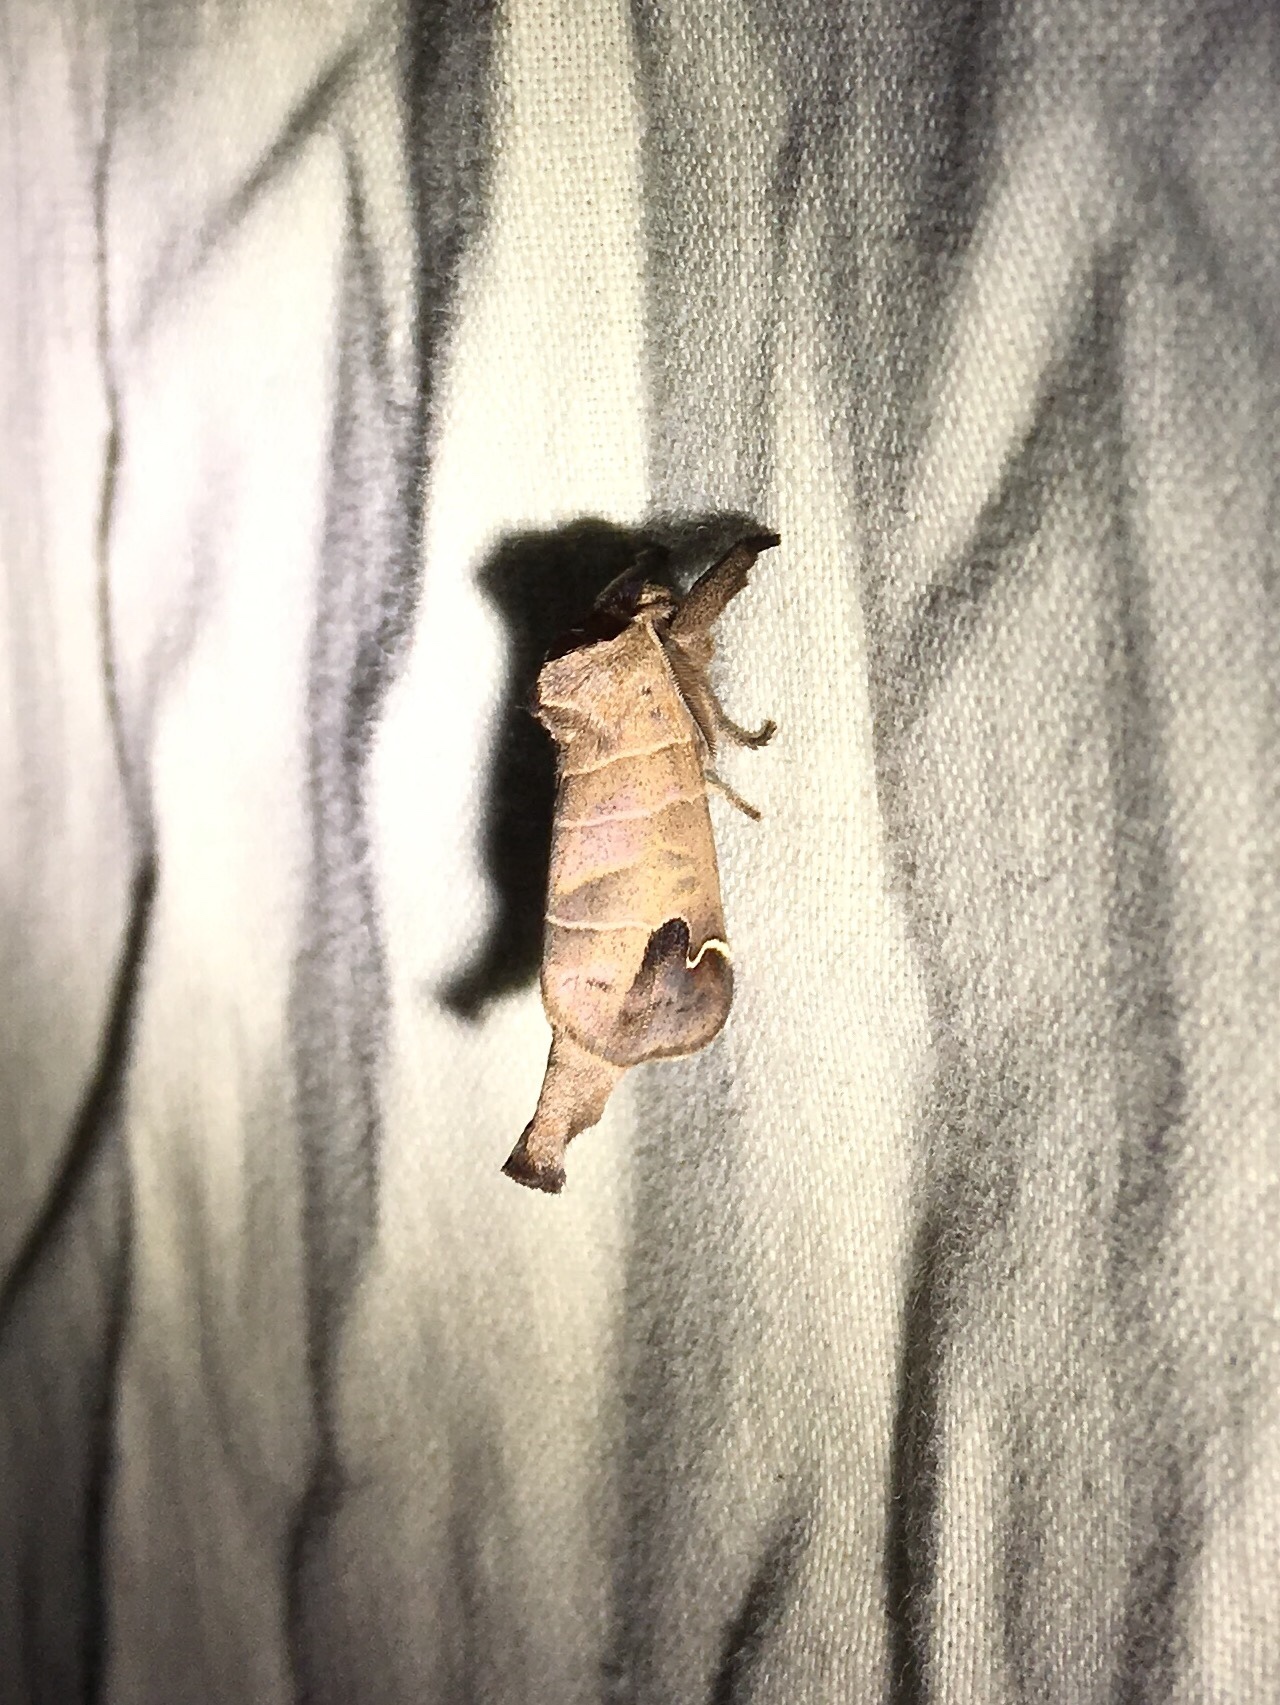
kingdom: Animalia
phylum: Arthropoda
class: Insecta
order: Lepidoptera
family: Notodontidae
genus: Clostera
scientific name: Clostera albosigma
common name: Sigmoid prominent
